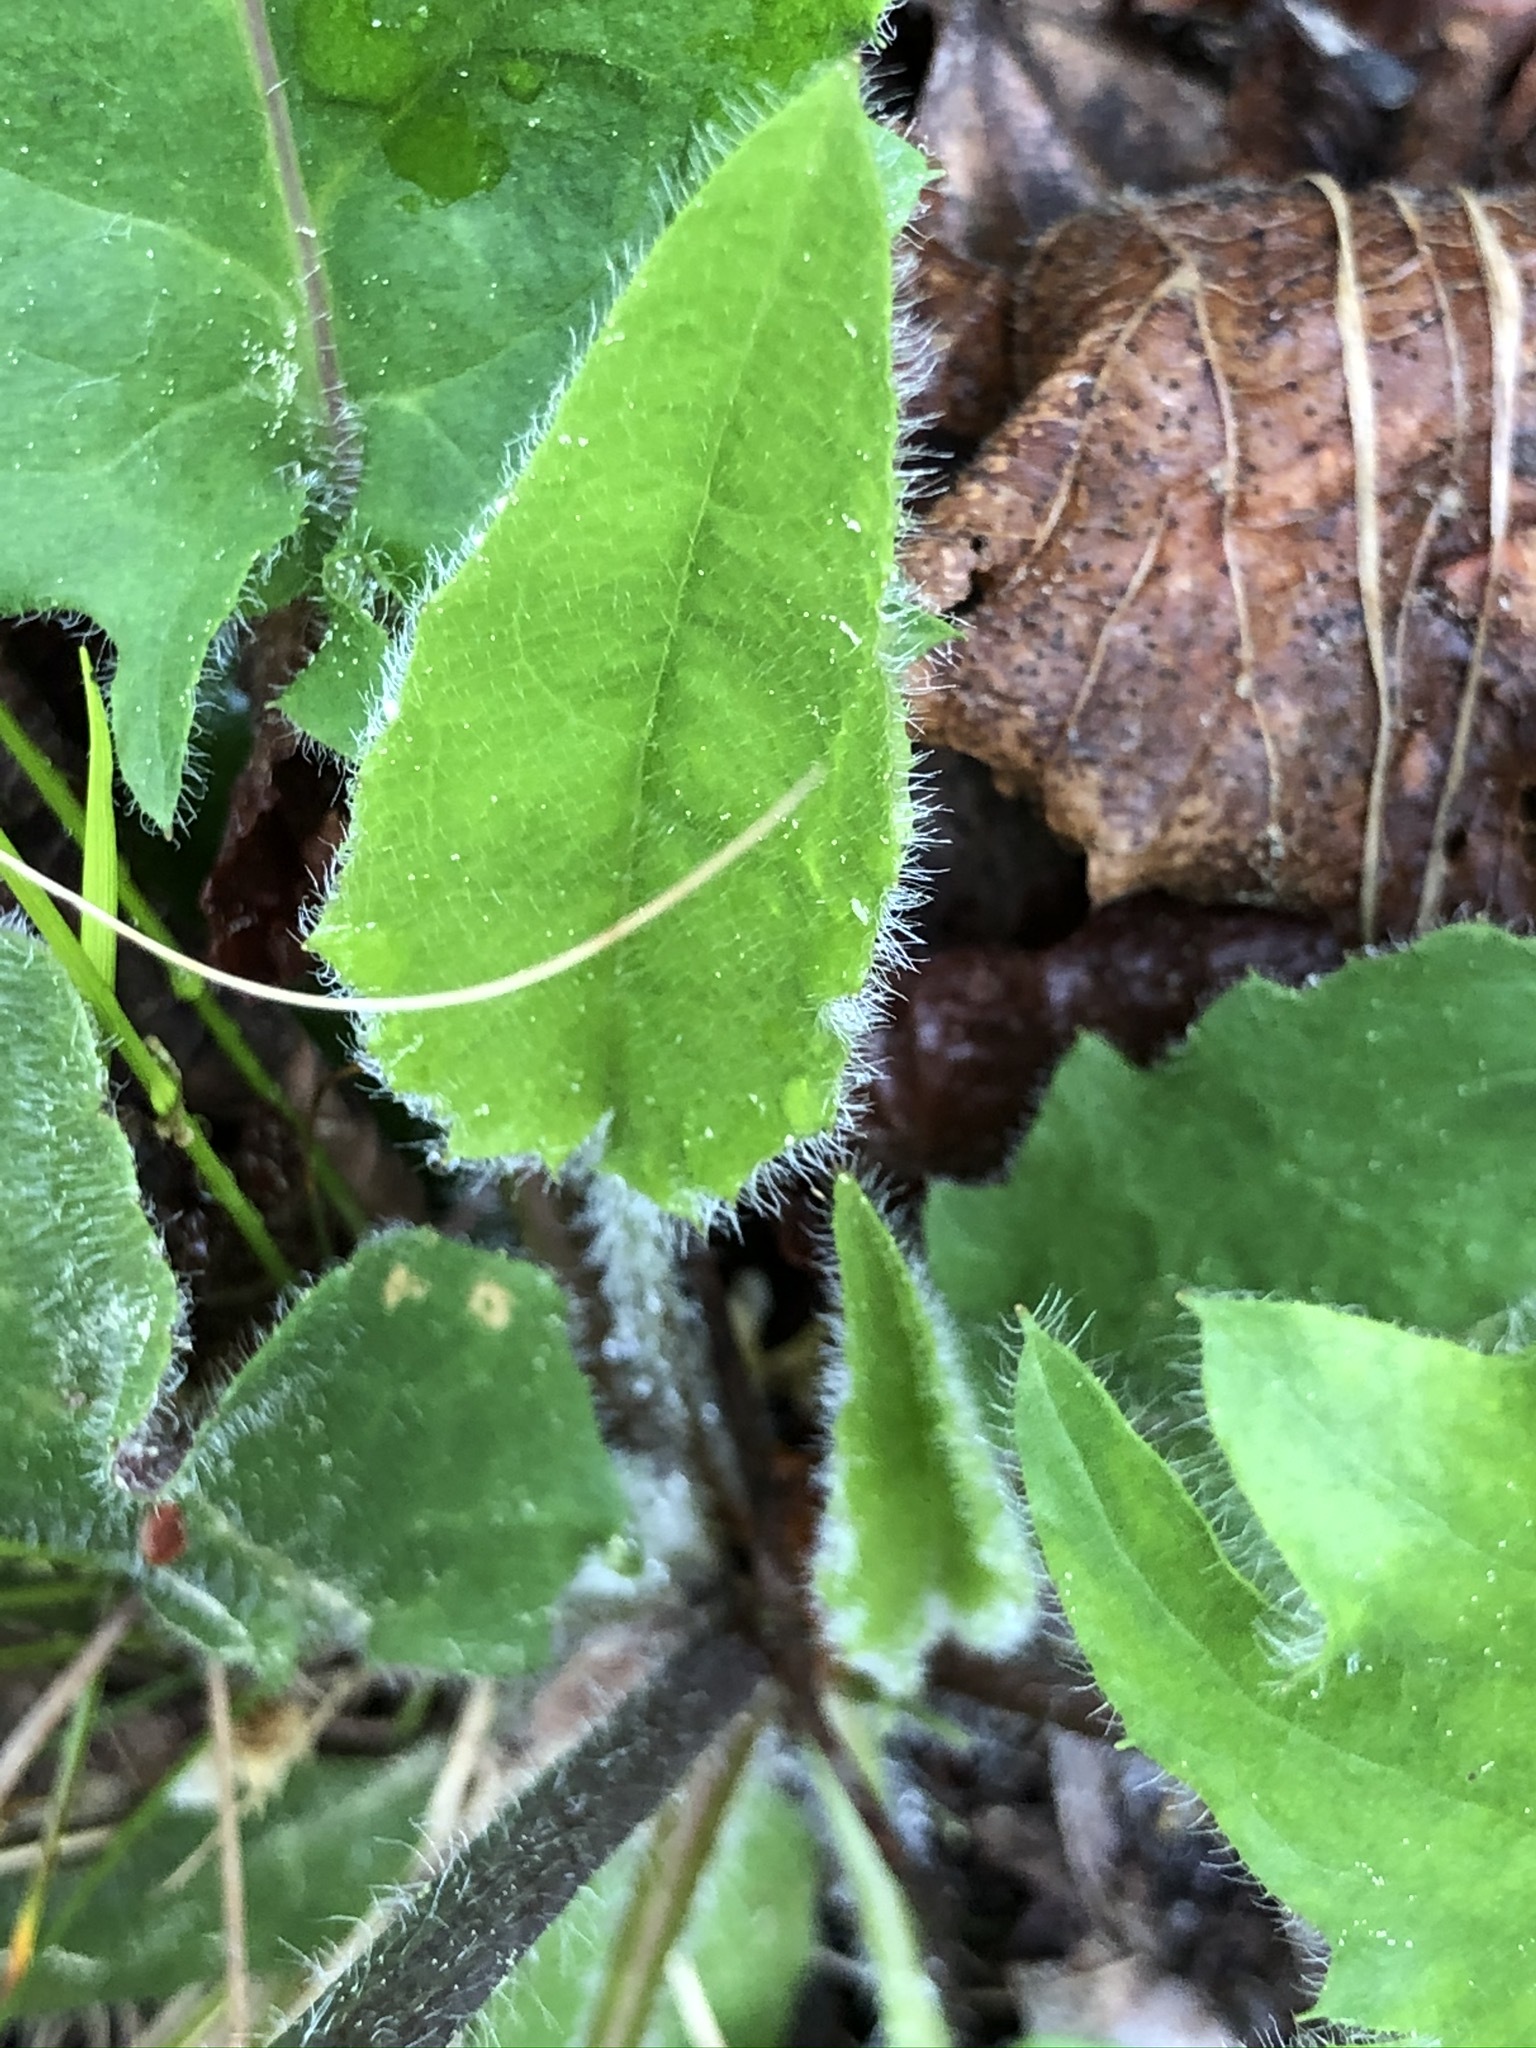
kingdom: Plantae
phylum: Tracheophyta
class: Magnoliopsida
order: Asterales
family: Asteraceae
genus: Hieracium
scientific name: Hieracium murorum
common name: Wall hawkweed
